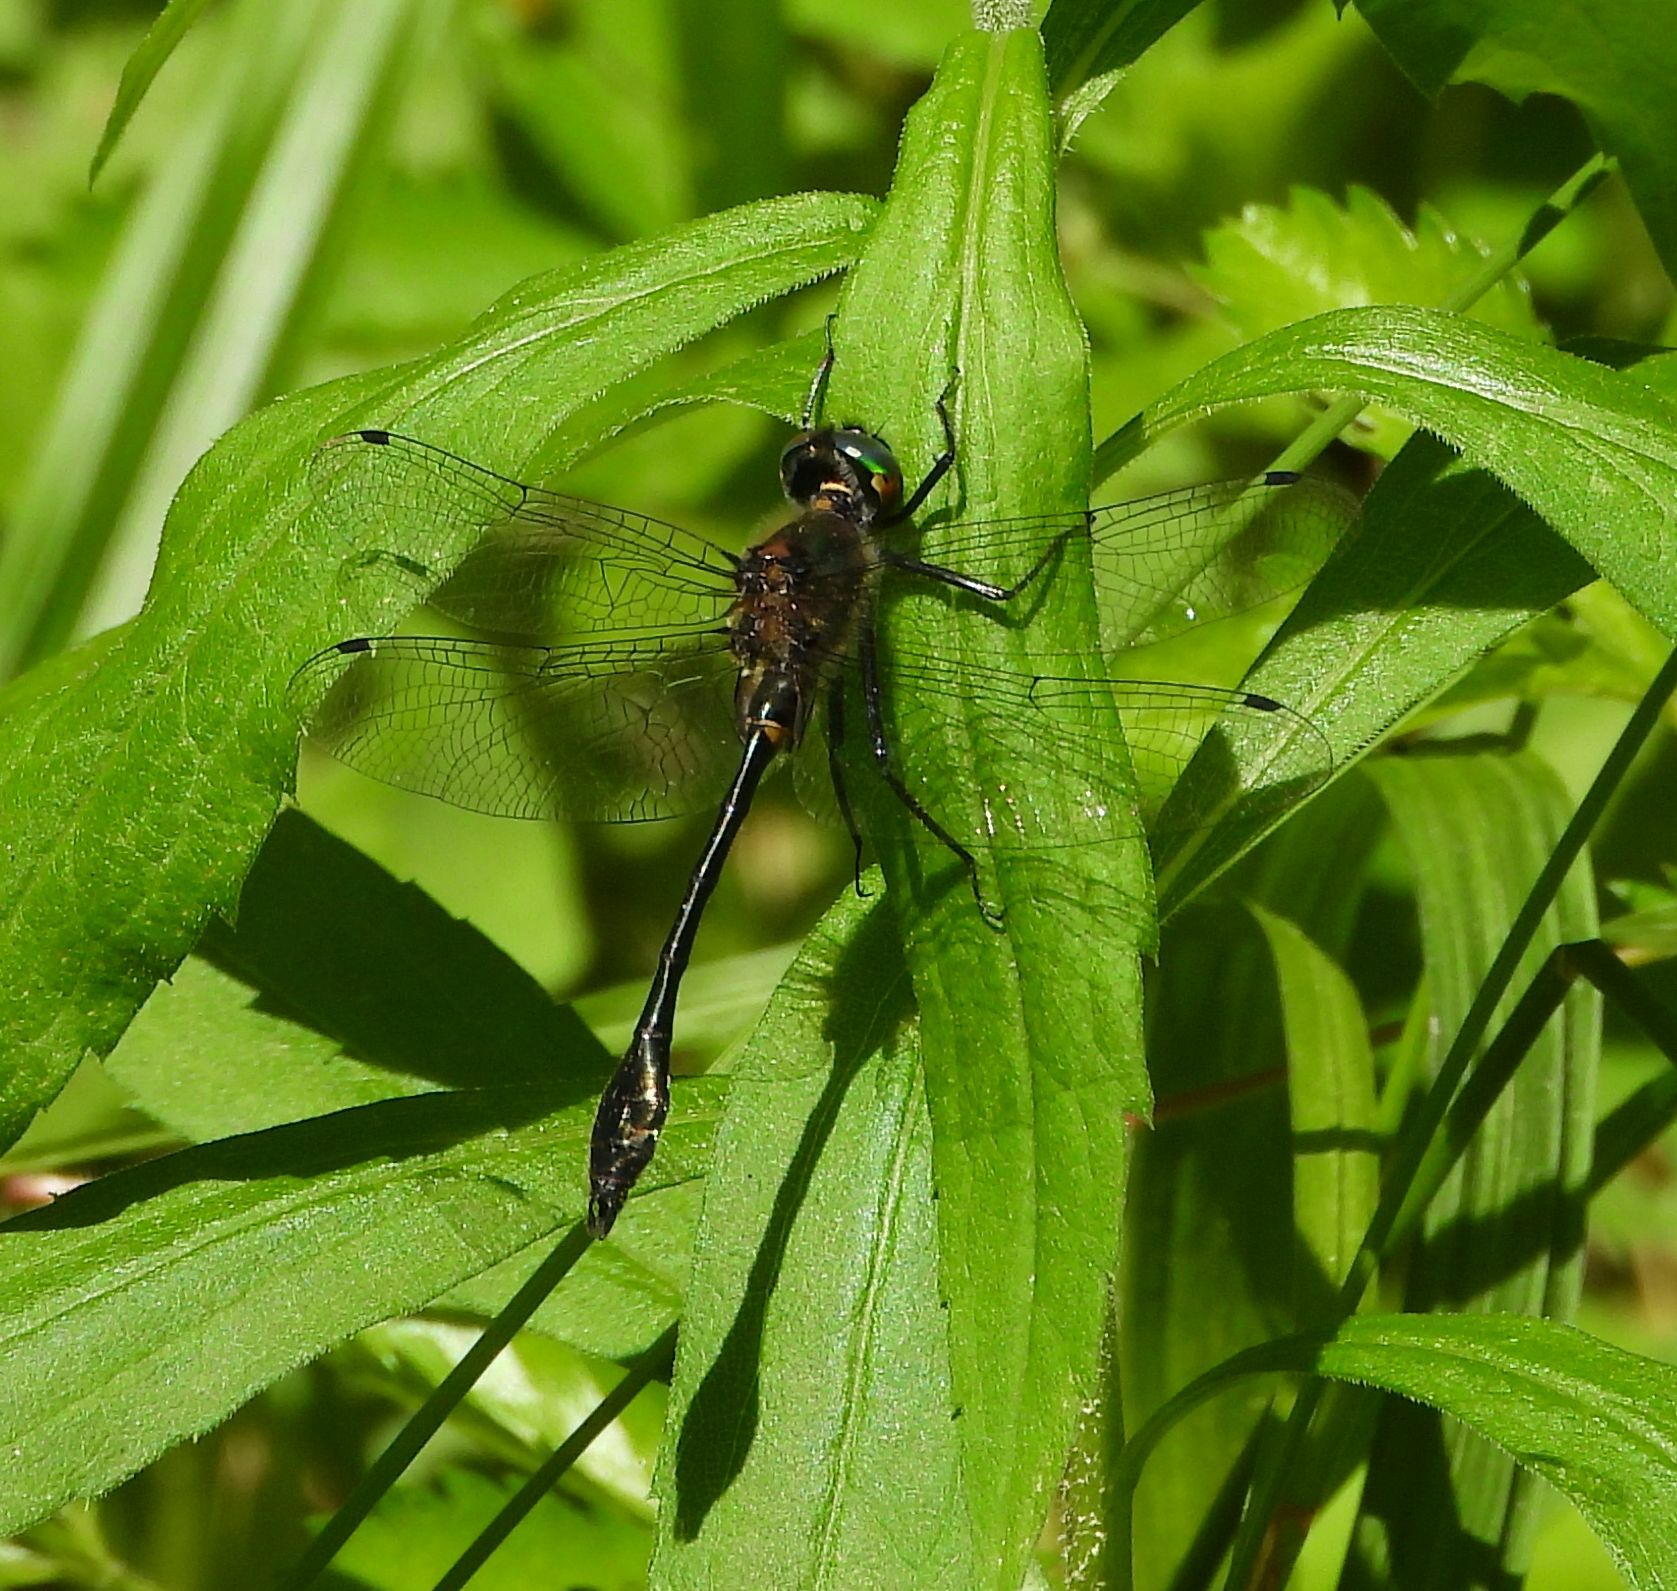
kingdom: Animalia
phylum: Arthropoda
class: Insecta
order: Odonata
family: Corduliidae
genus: Dorocordulia
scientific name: Dorocordulia libera
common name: Racket-tailed emerald
